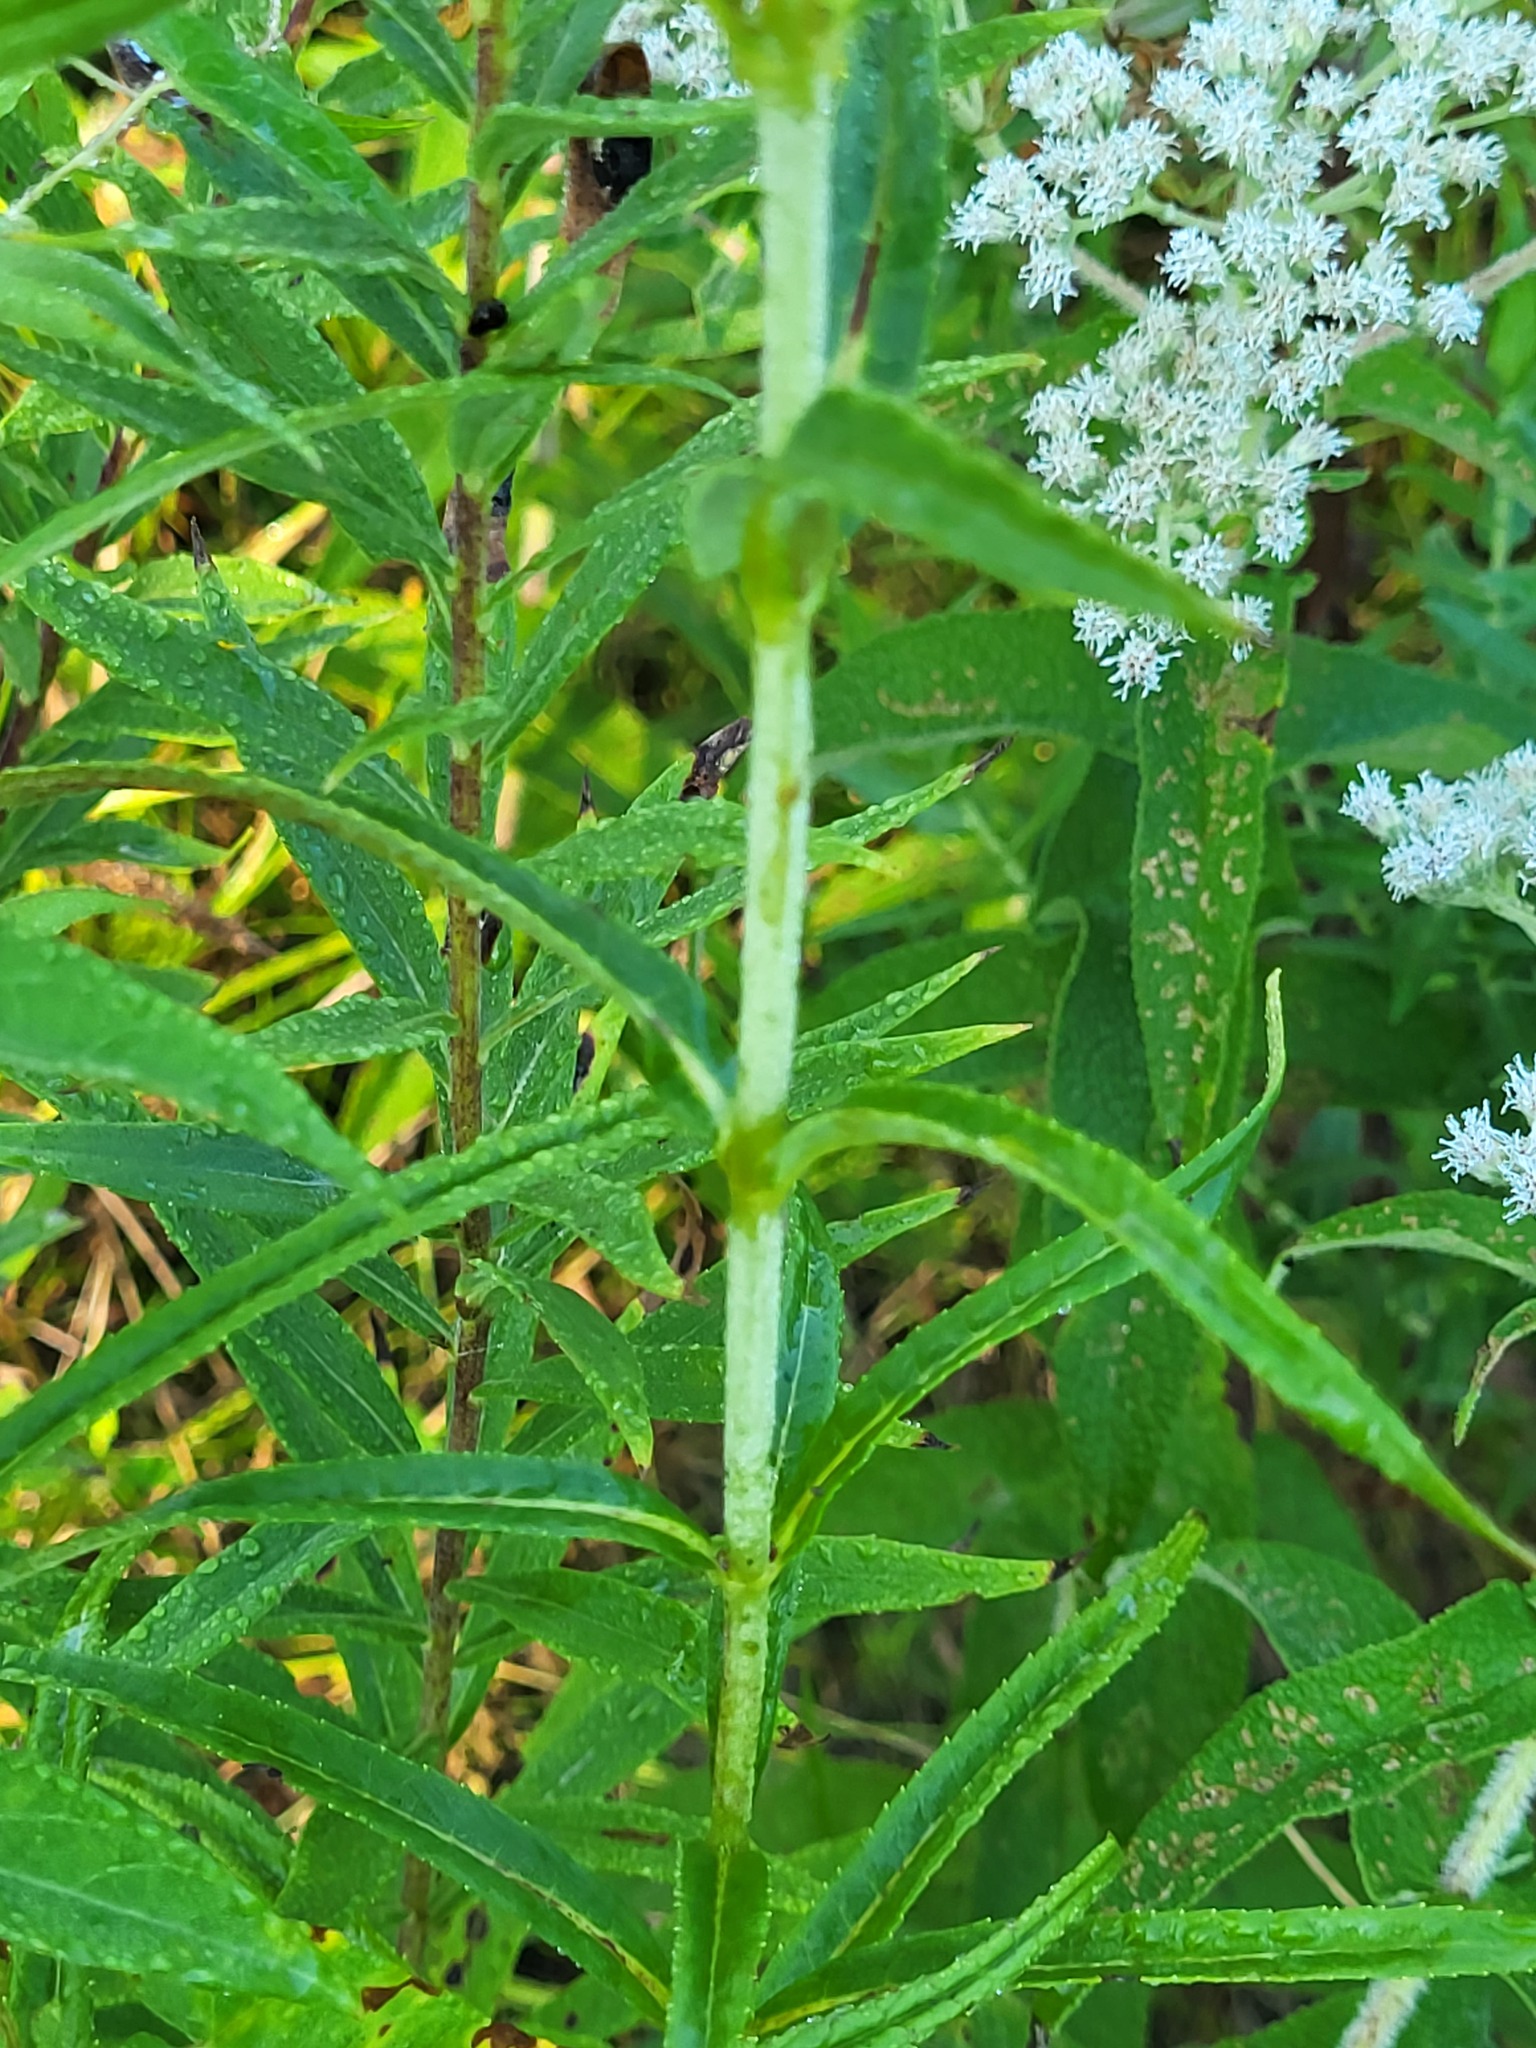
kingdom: Plantae
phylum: Tracheophyta
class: Magnoliopsida
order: Lamiales
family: Plantaginaceae
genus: Chelone
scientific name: Chelone glabra
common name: Snakehead
